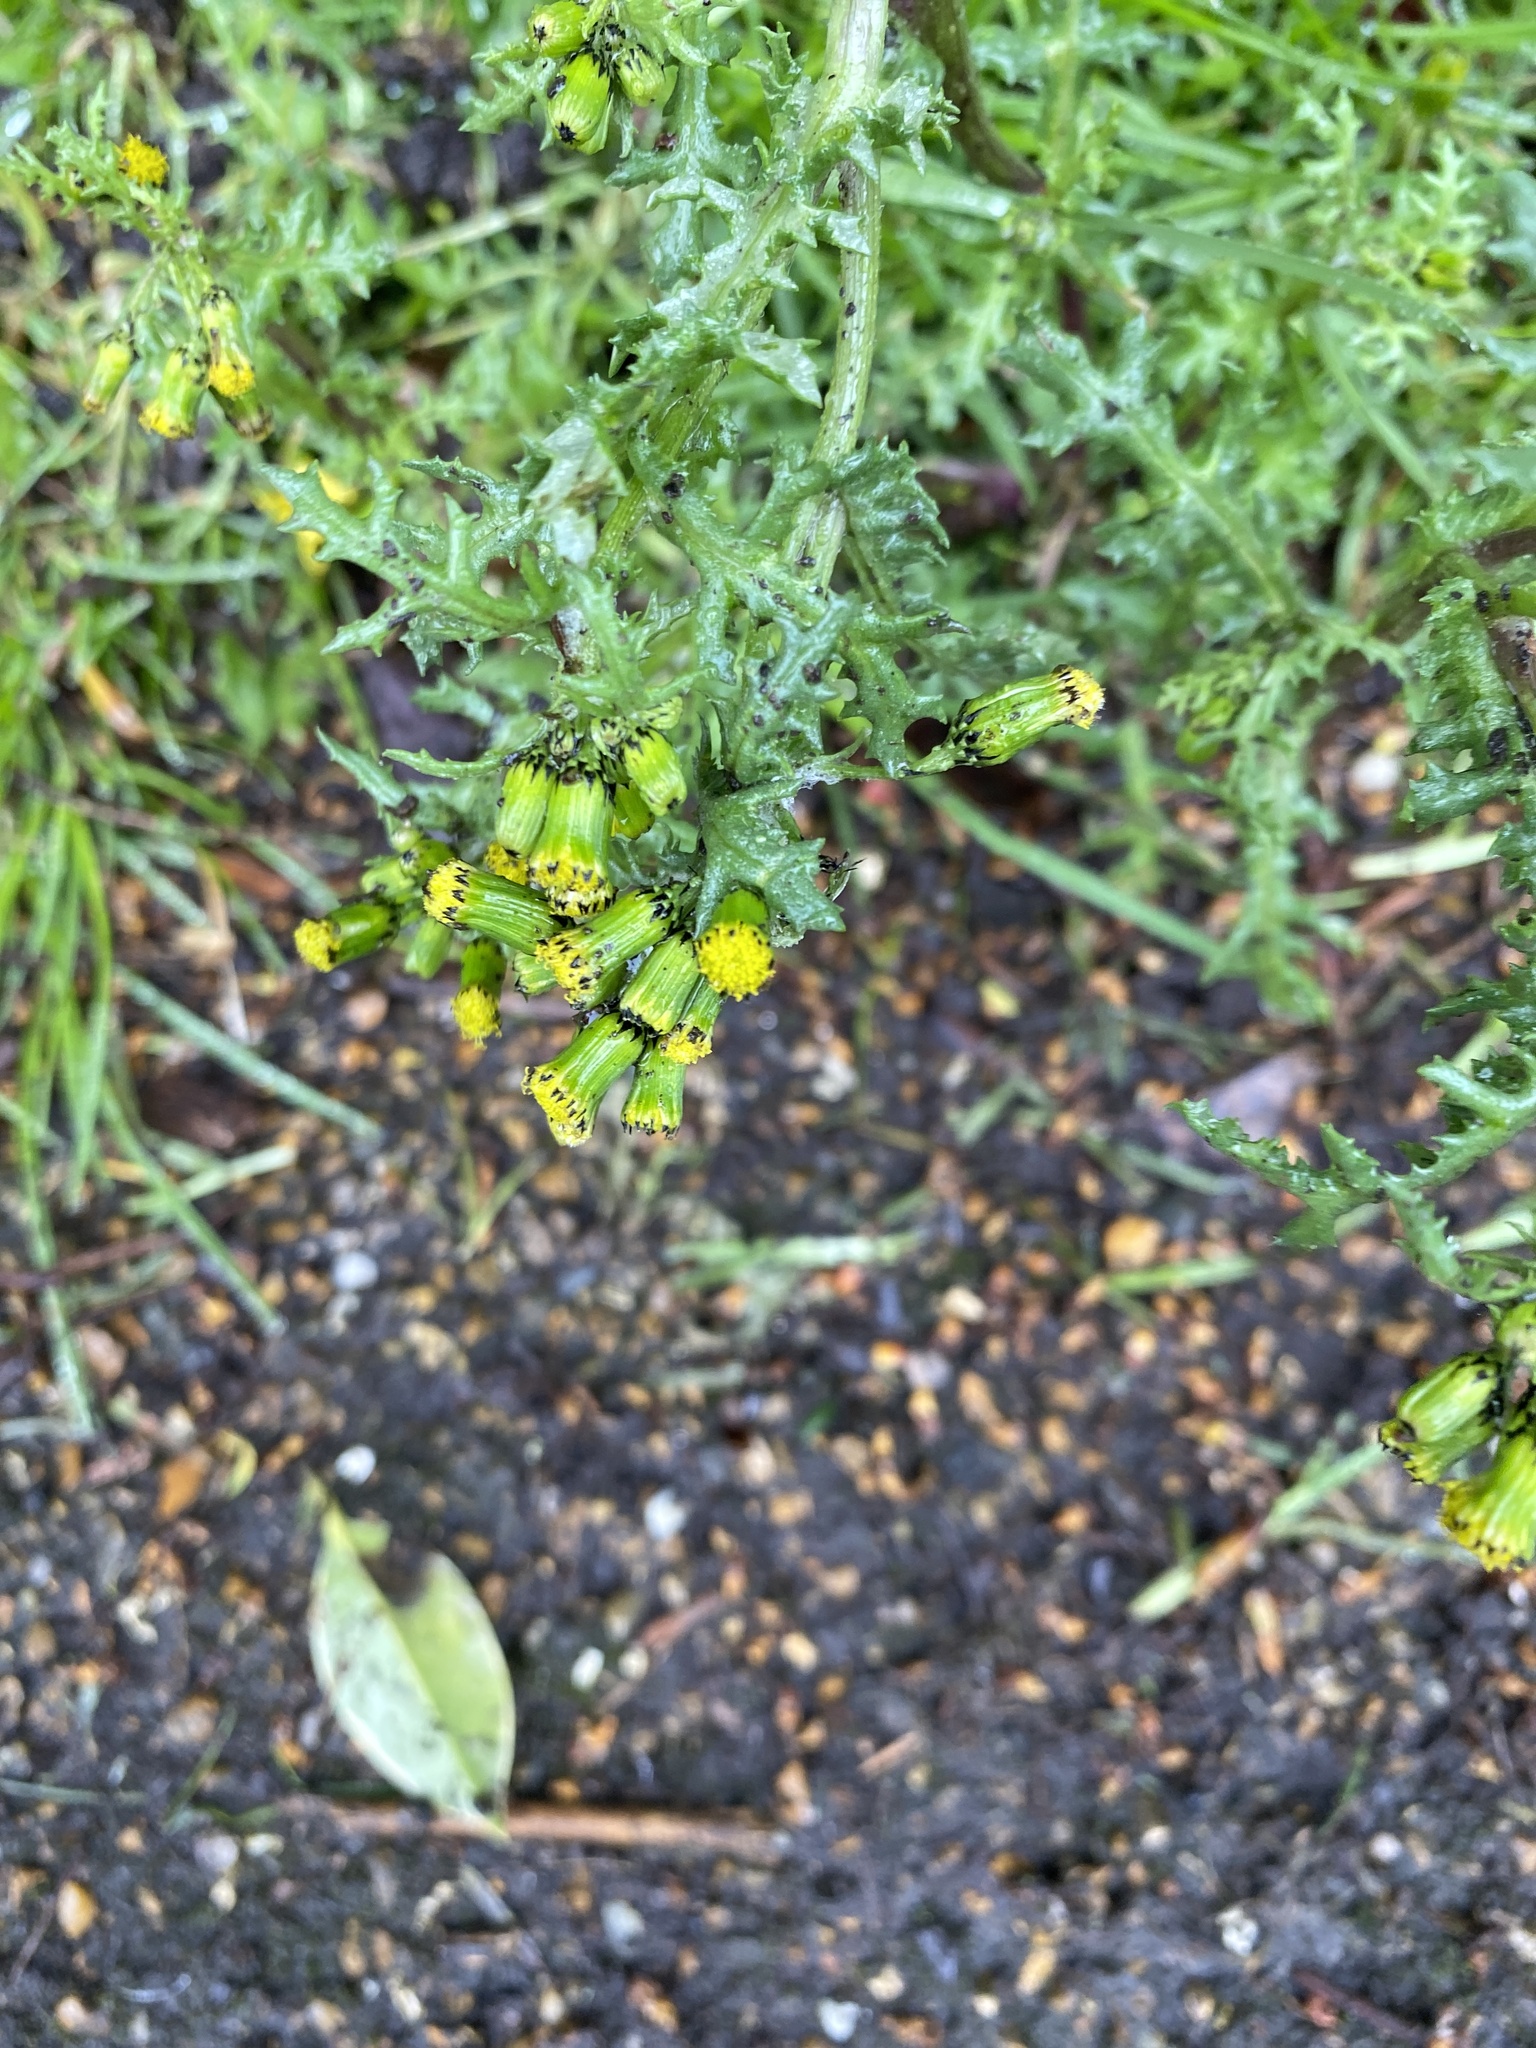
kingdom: Plantae
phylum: Tracheophyta
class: Magnoliopsida
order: Asterales
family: Asteraceae
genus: Senecio
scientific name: Senecio vulgaris
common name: Old-man-in-the-spring
